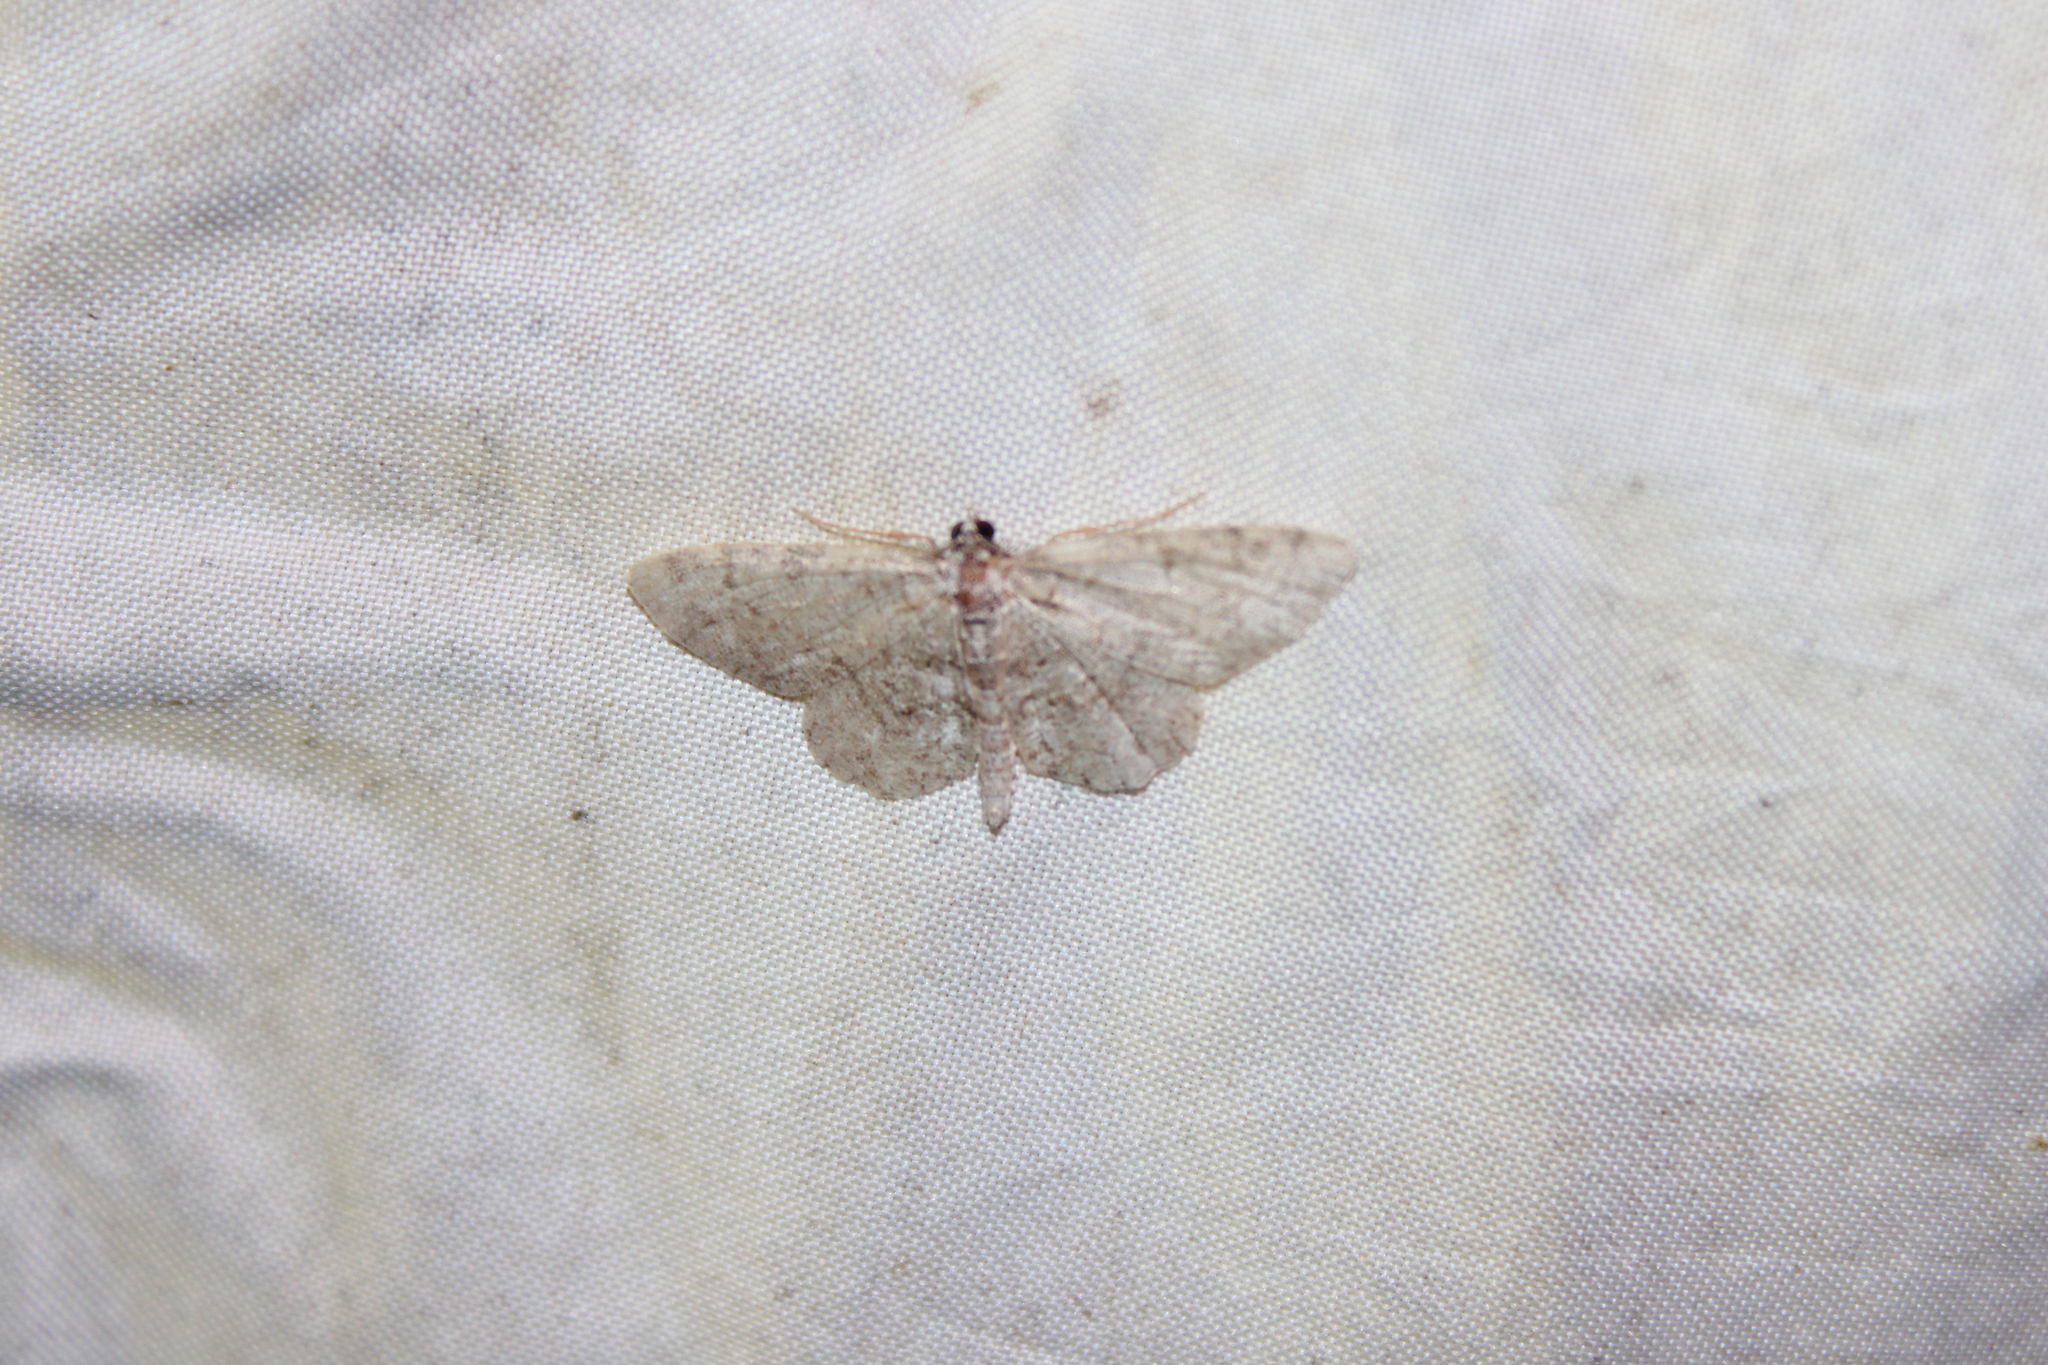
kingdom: Animalia
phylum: Arthropoda
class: Insecta
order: Lepidoptera
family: Geometridae
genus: Protoboarmia
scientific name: Protoboarmia porcelaria
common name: Porcelain gray
